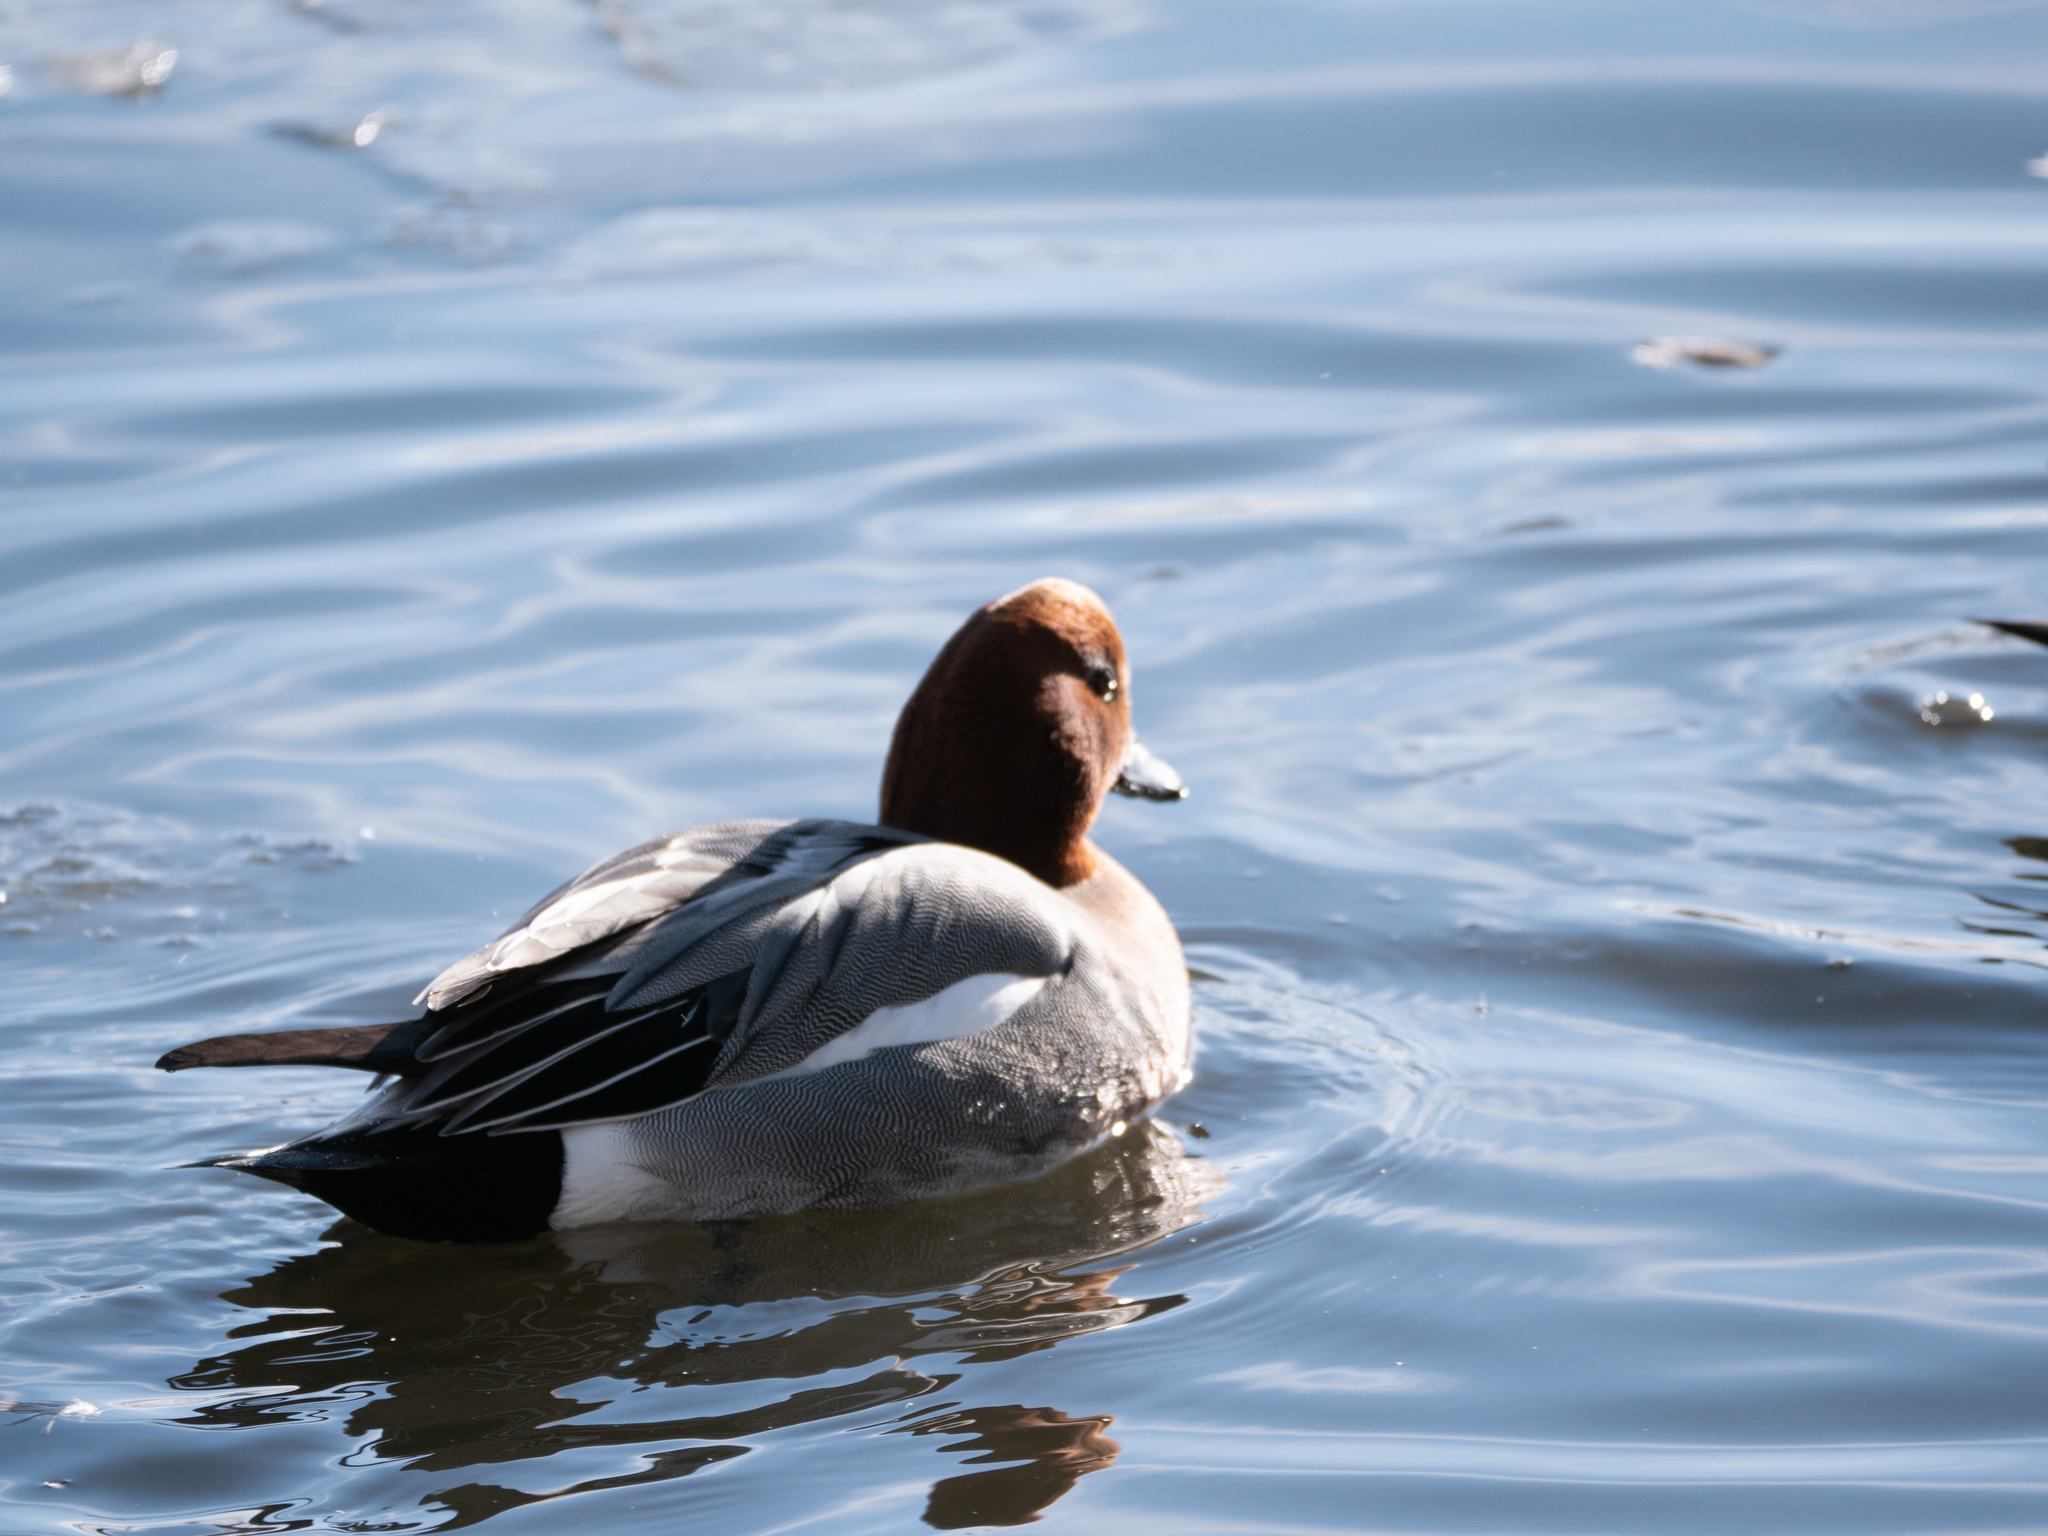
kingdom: Animalia
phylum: Chordata
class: Aves
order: Anseriformes
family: Anatidae
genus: Mareca
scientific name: Mareca penelope
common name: Eurasian wigeon
